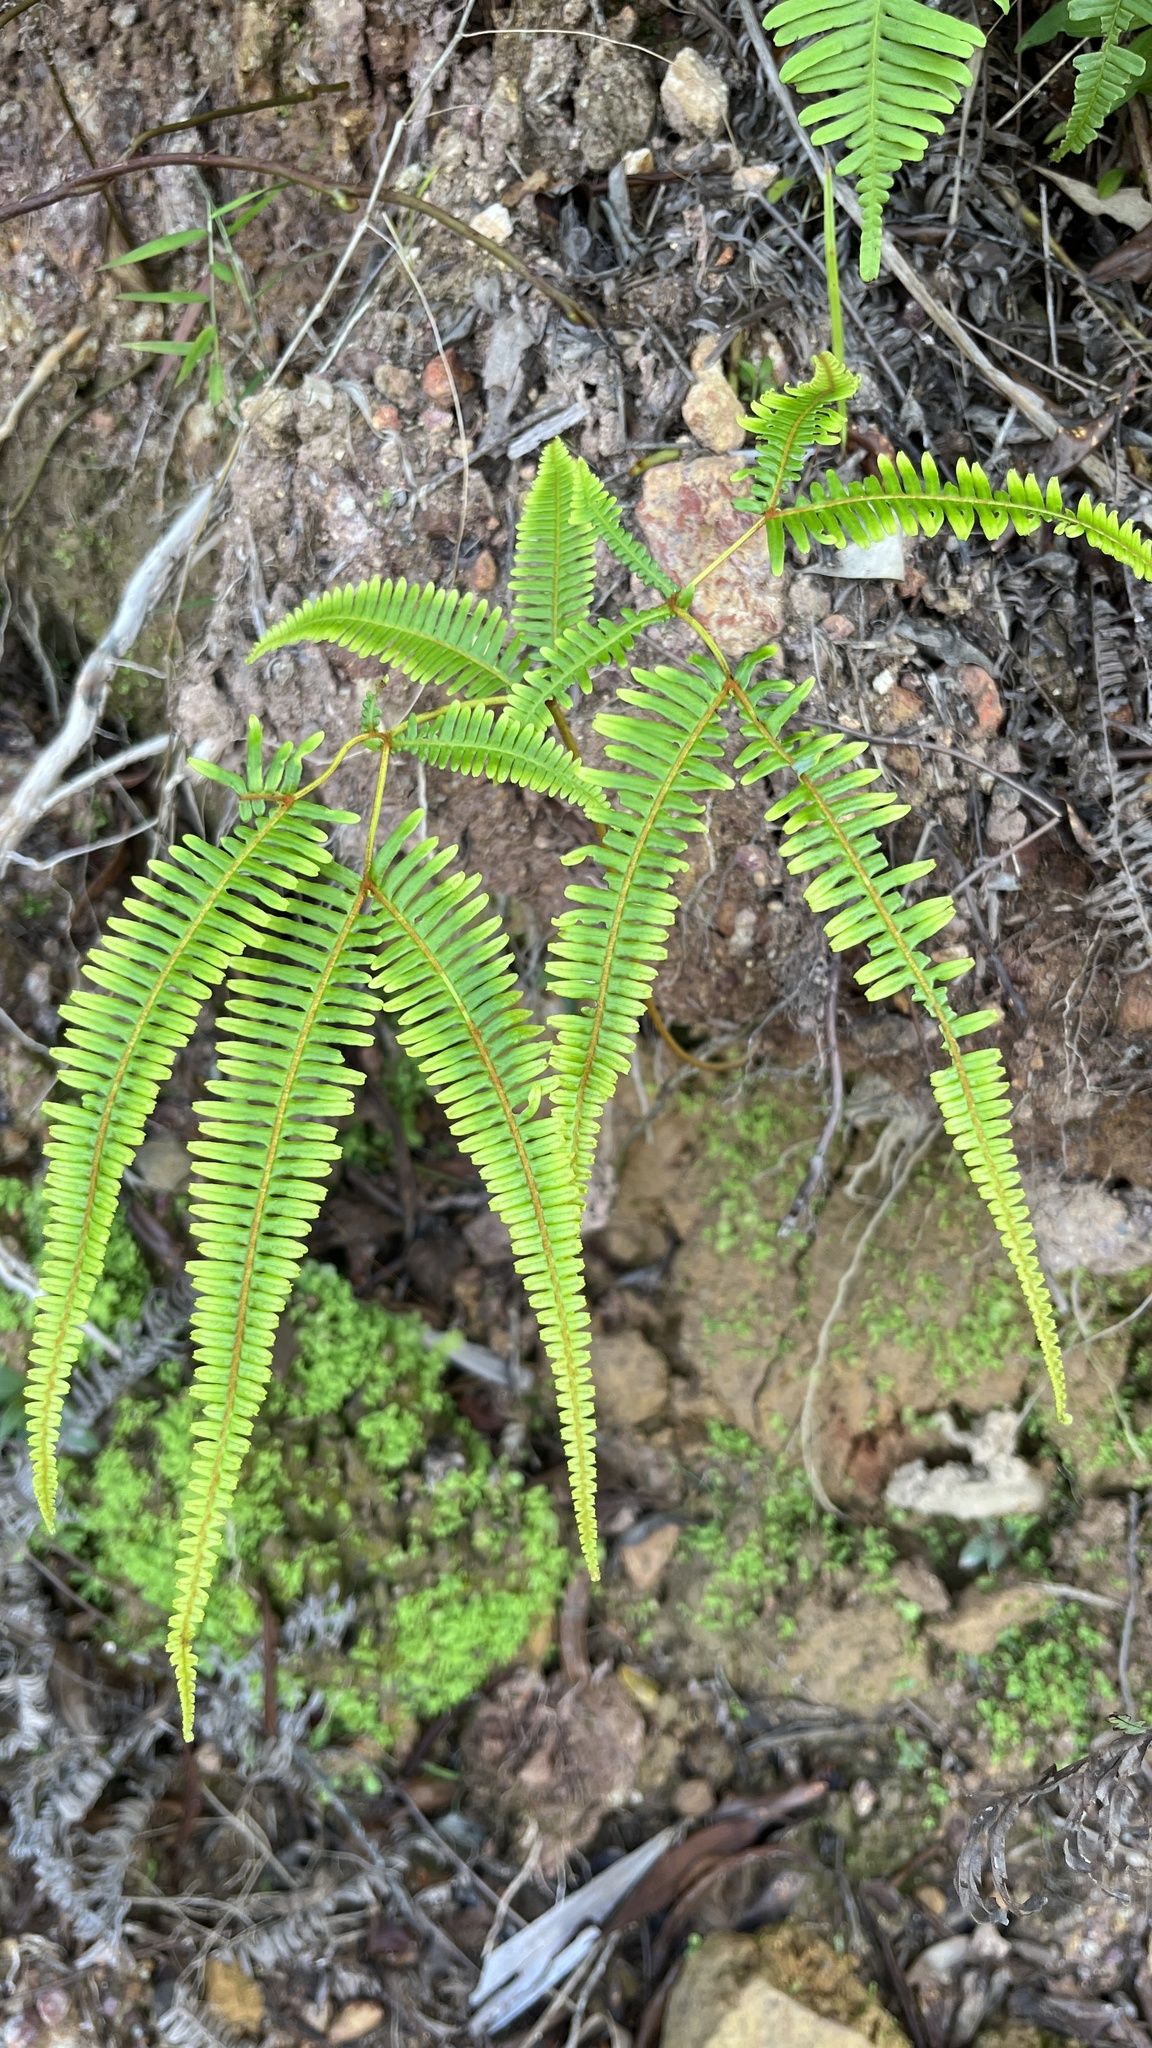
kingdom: Plantae
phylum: Tracheophyta
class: Polypodiopsida
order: Gleicheniales
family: Gleicheniaceae
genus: Dicranopteris
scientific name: Dicranopteris linearis
